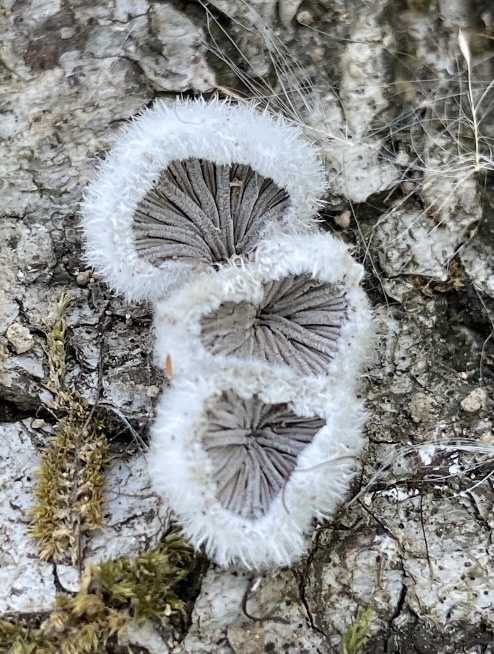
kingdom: Fungi
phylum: Basidiomycota
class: Agaricomycetes
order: Agaricales
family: Schizophyllaceae
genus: Schizophyllum
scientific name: Schizophyllum commune
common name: Common porecrust
